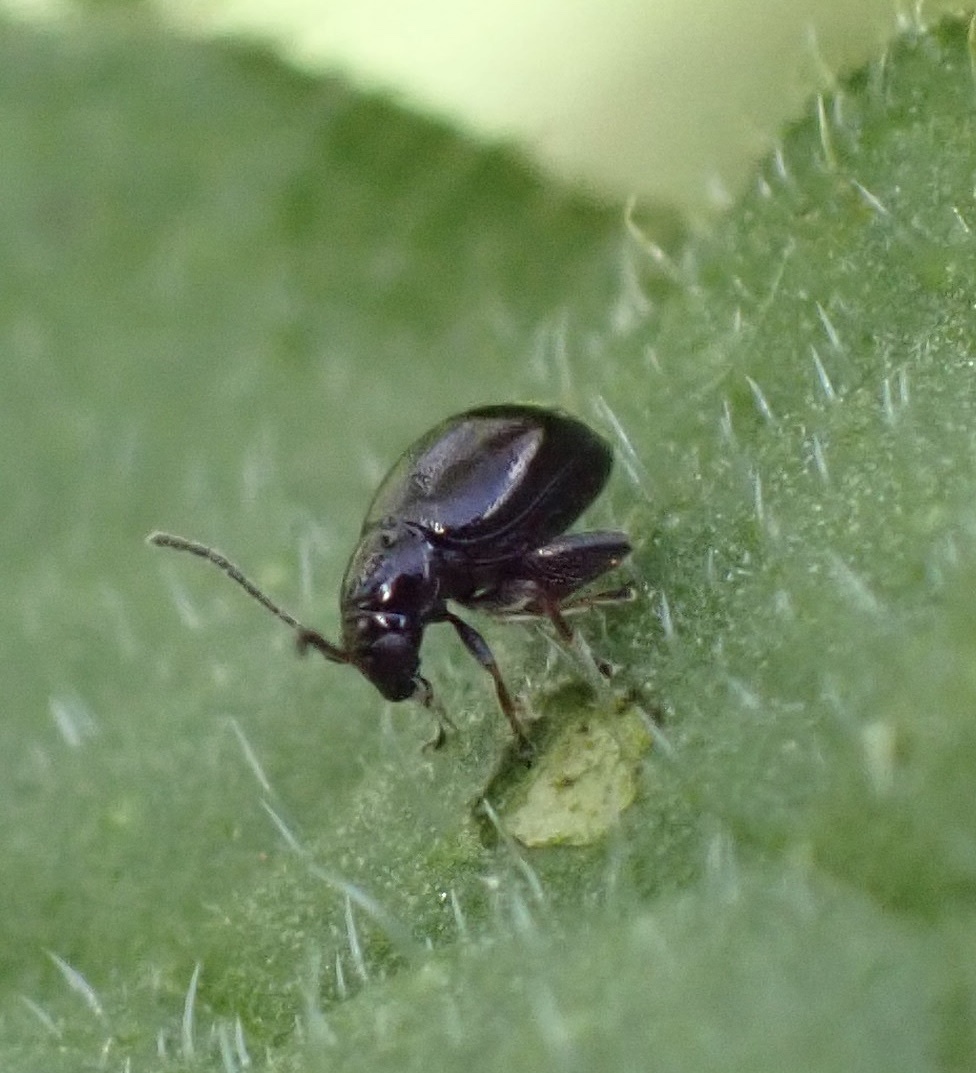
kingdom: Animalia
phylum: Arthropoda
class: Insecta
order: Coleoptera
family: Chrysomelidae
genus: Longitarsus
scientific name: Longitarsus anchusae
